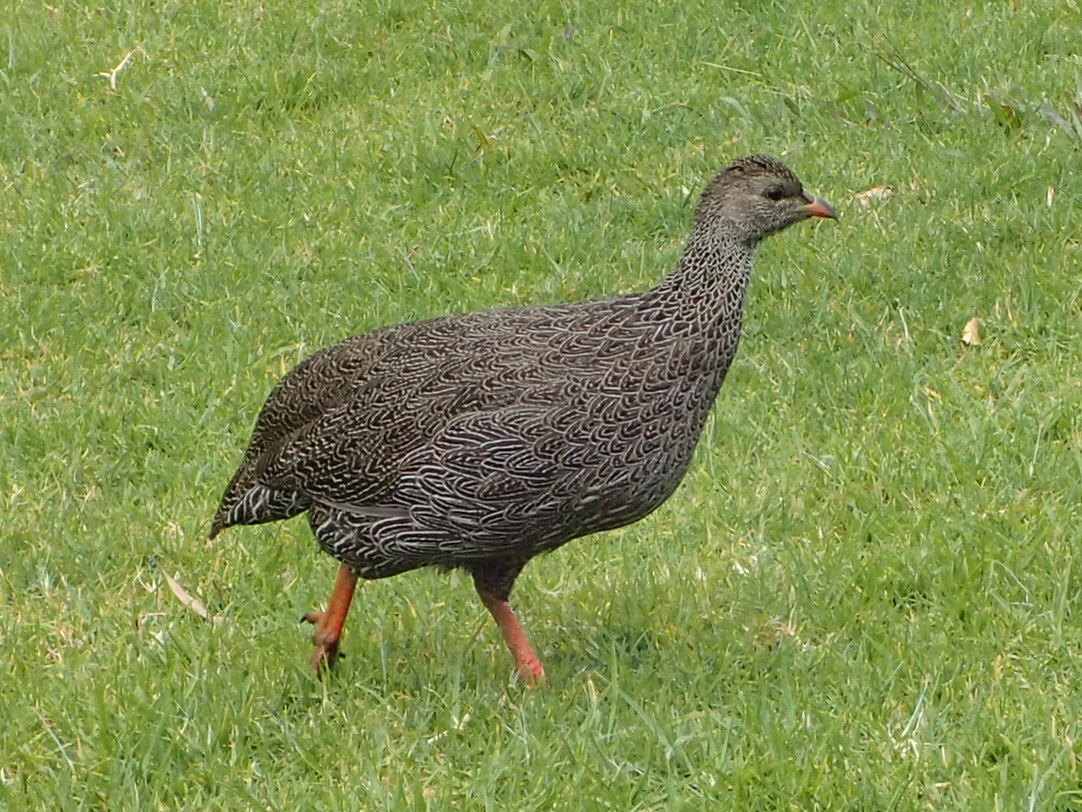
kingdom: Animalia
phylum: Chordata
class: Aves
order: Galliformes
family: Phasianidae
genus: Pternistis
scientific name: Pternistis capensis
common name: Cape spurfowl
